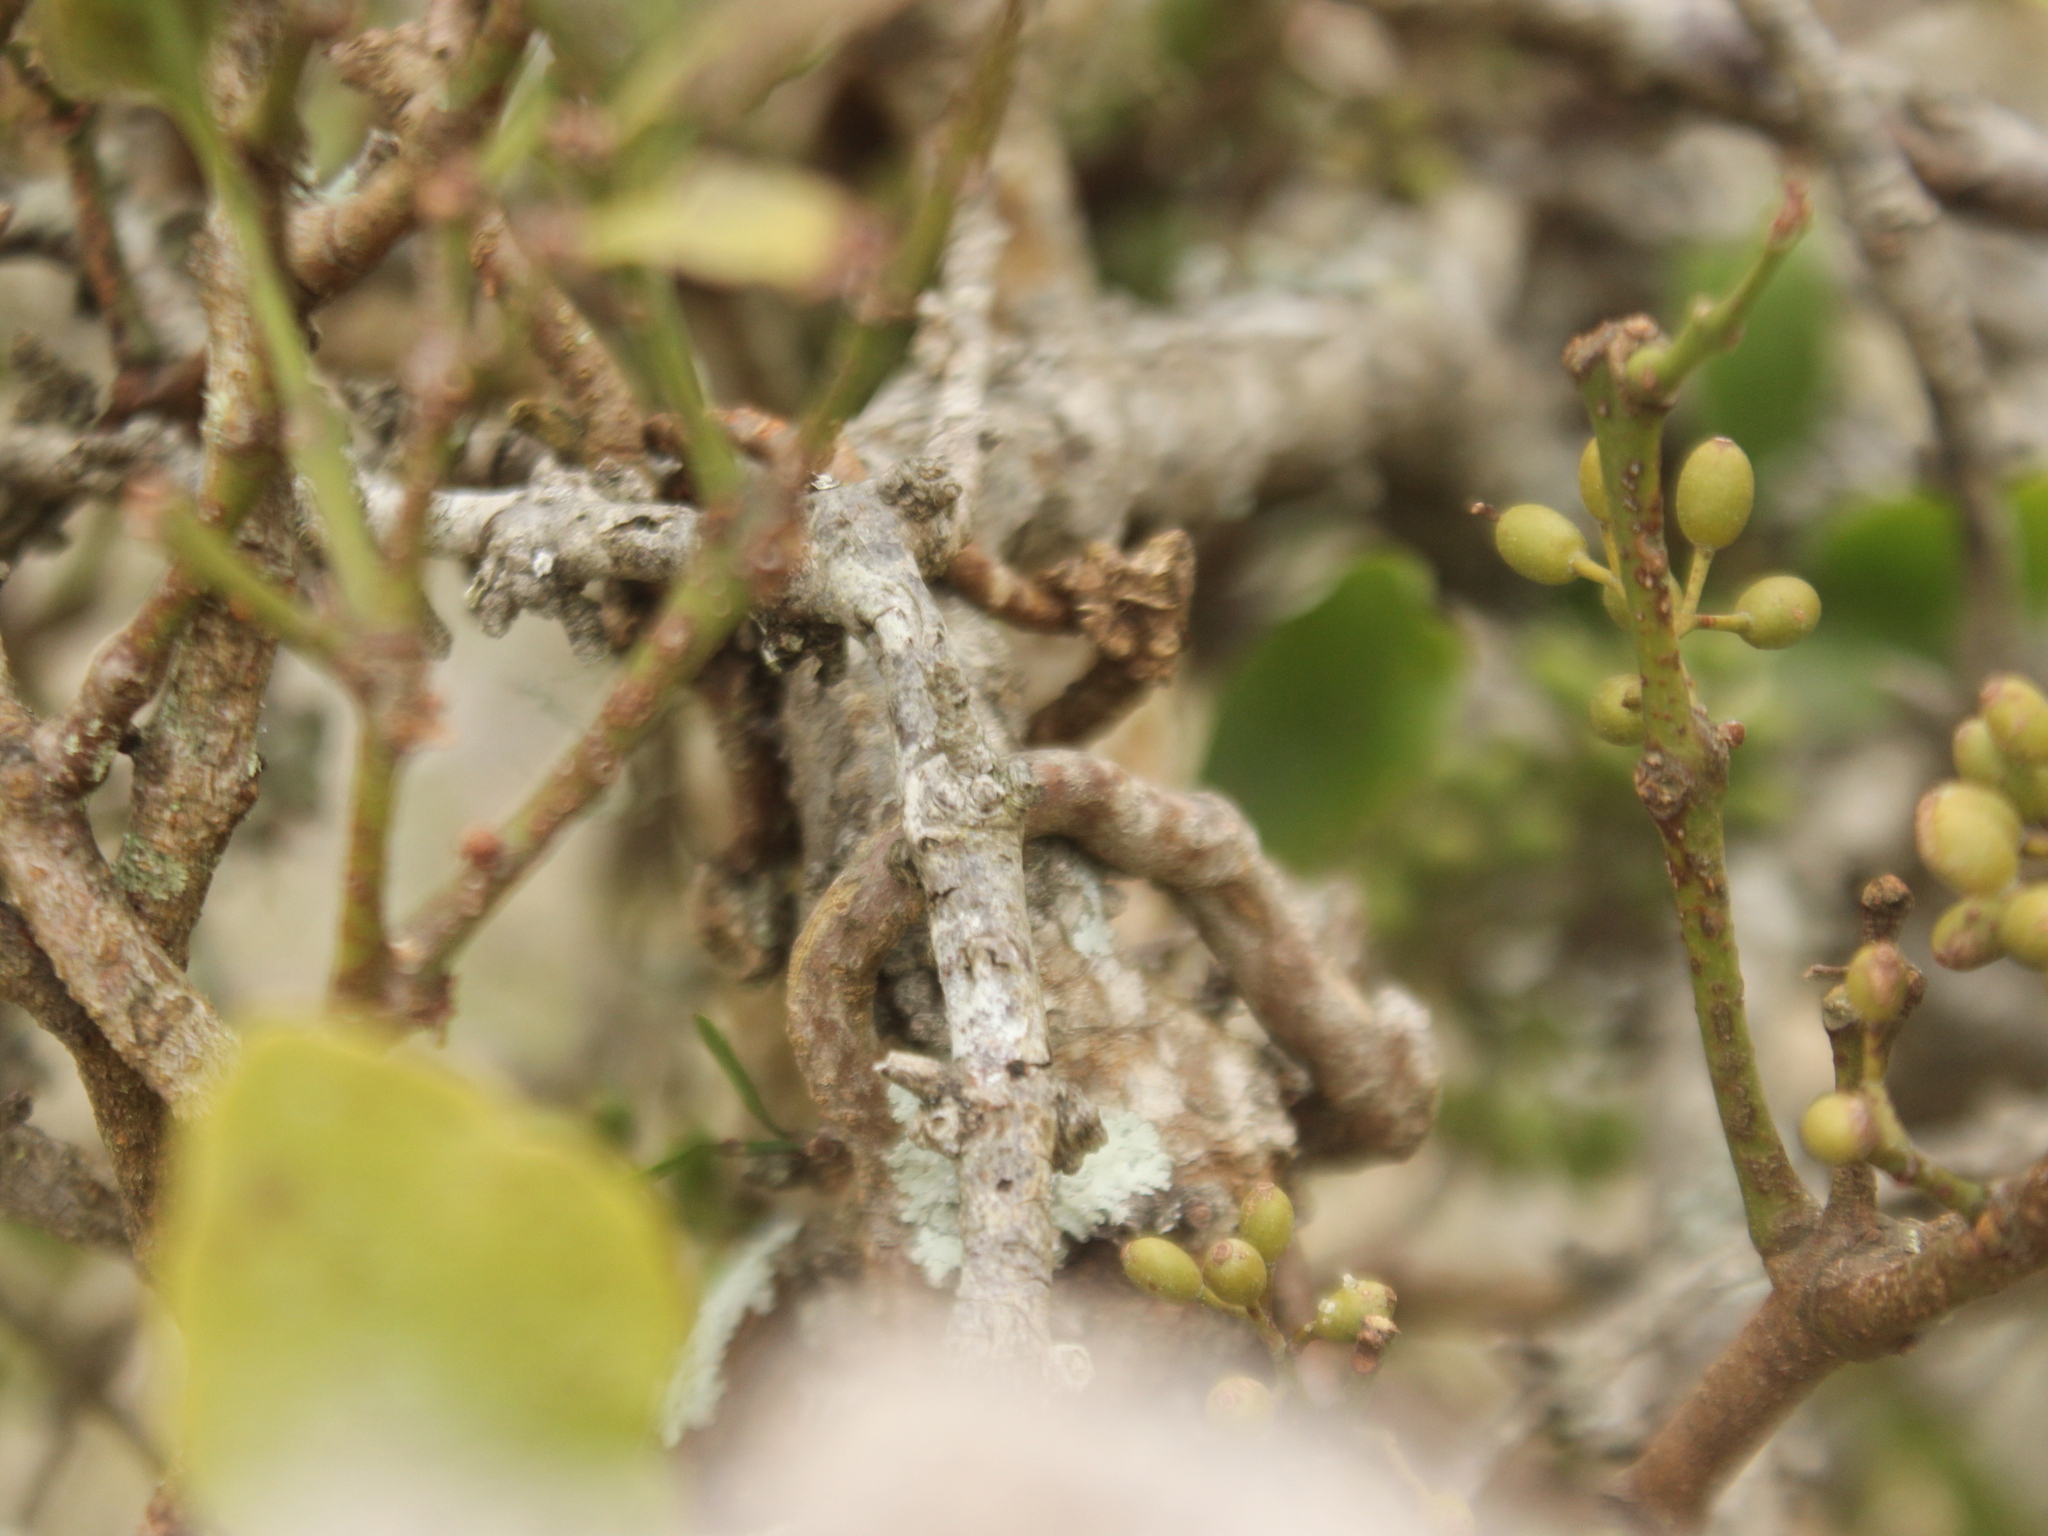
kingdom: Plantae
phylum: Tracheophyta
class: Magnoliopsida
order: Santalales
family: Loranthaceae
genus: Ileostylus
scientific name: Ileostylus micranthus
